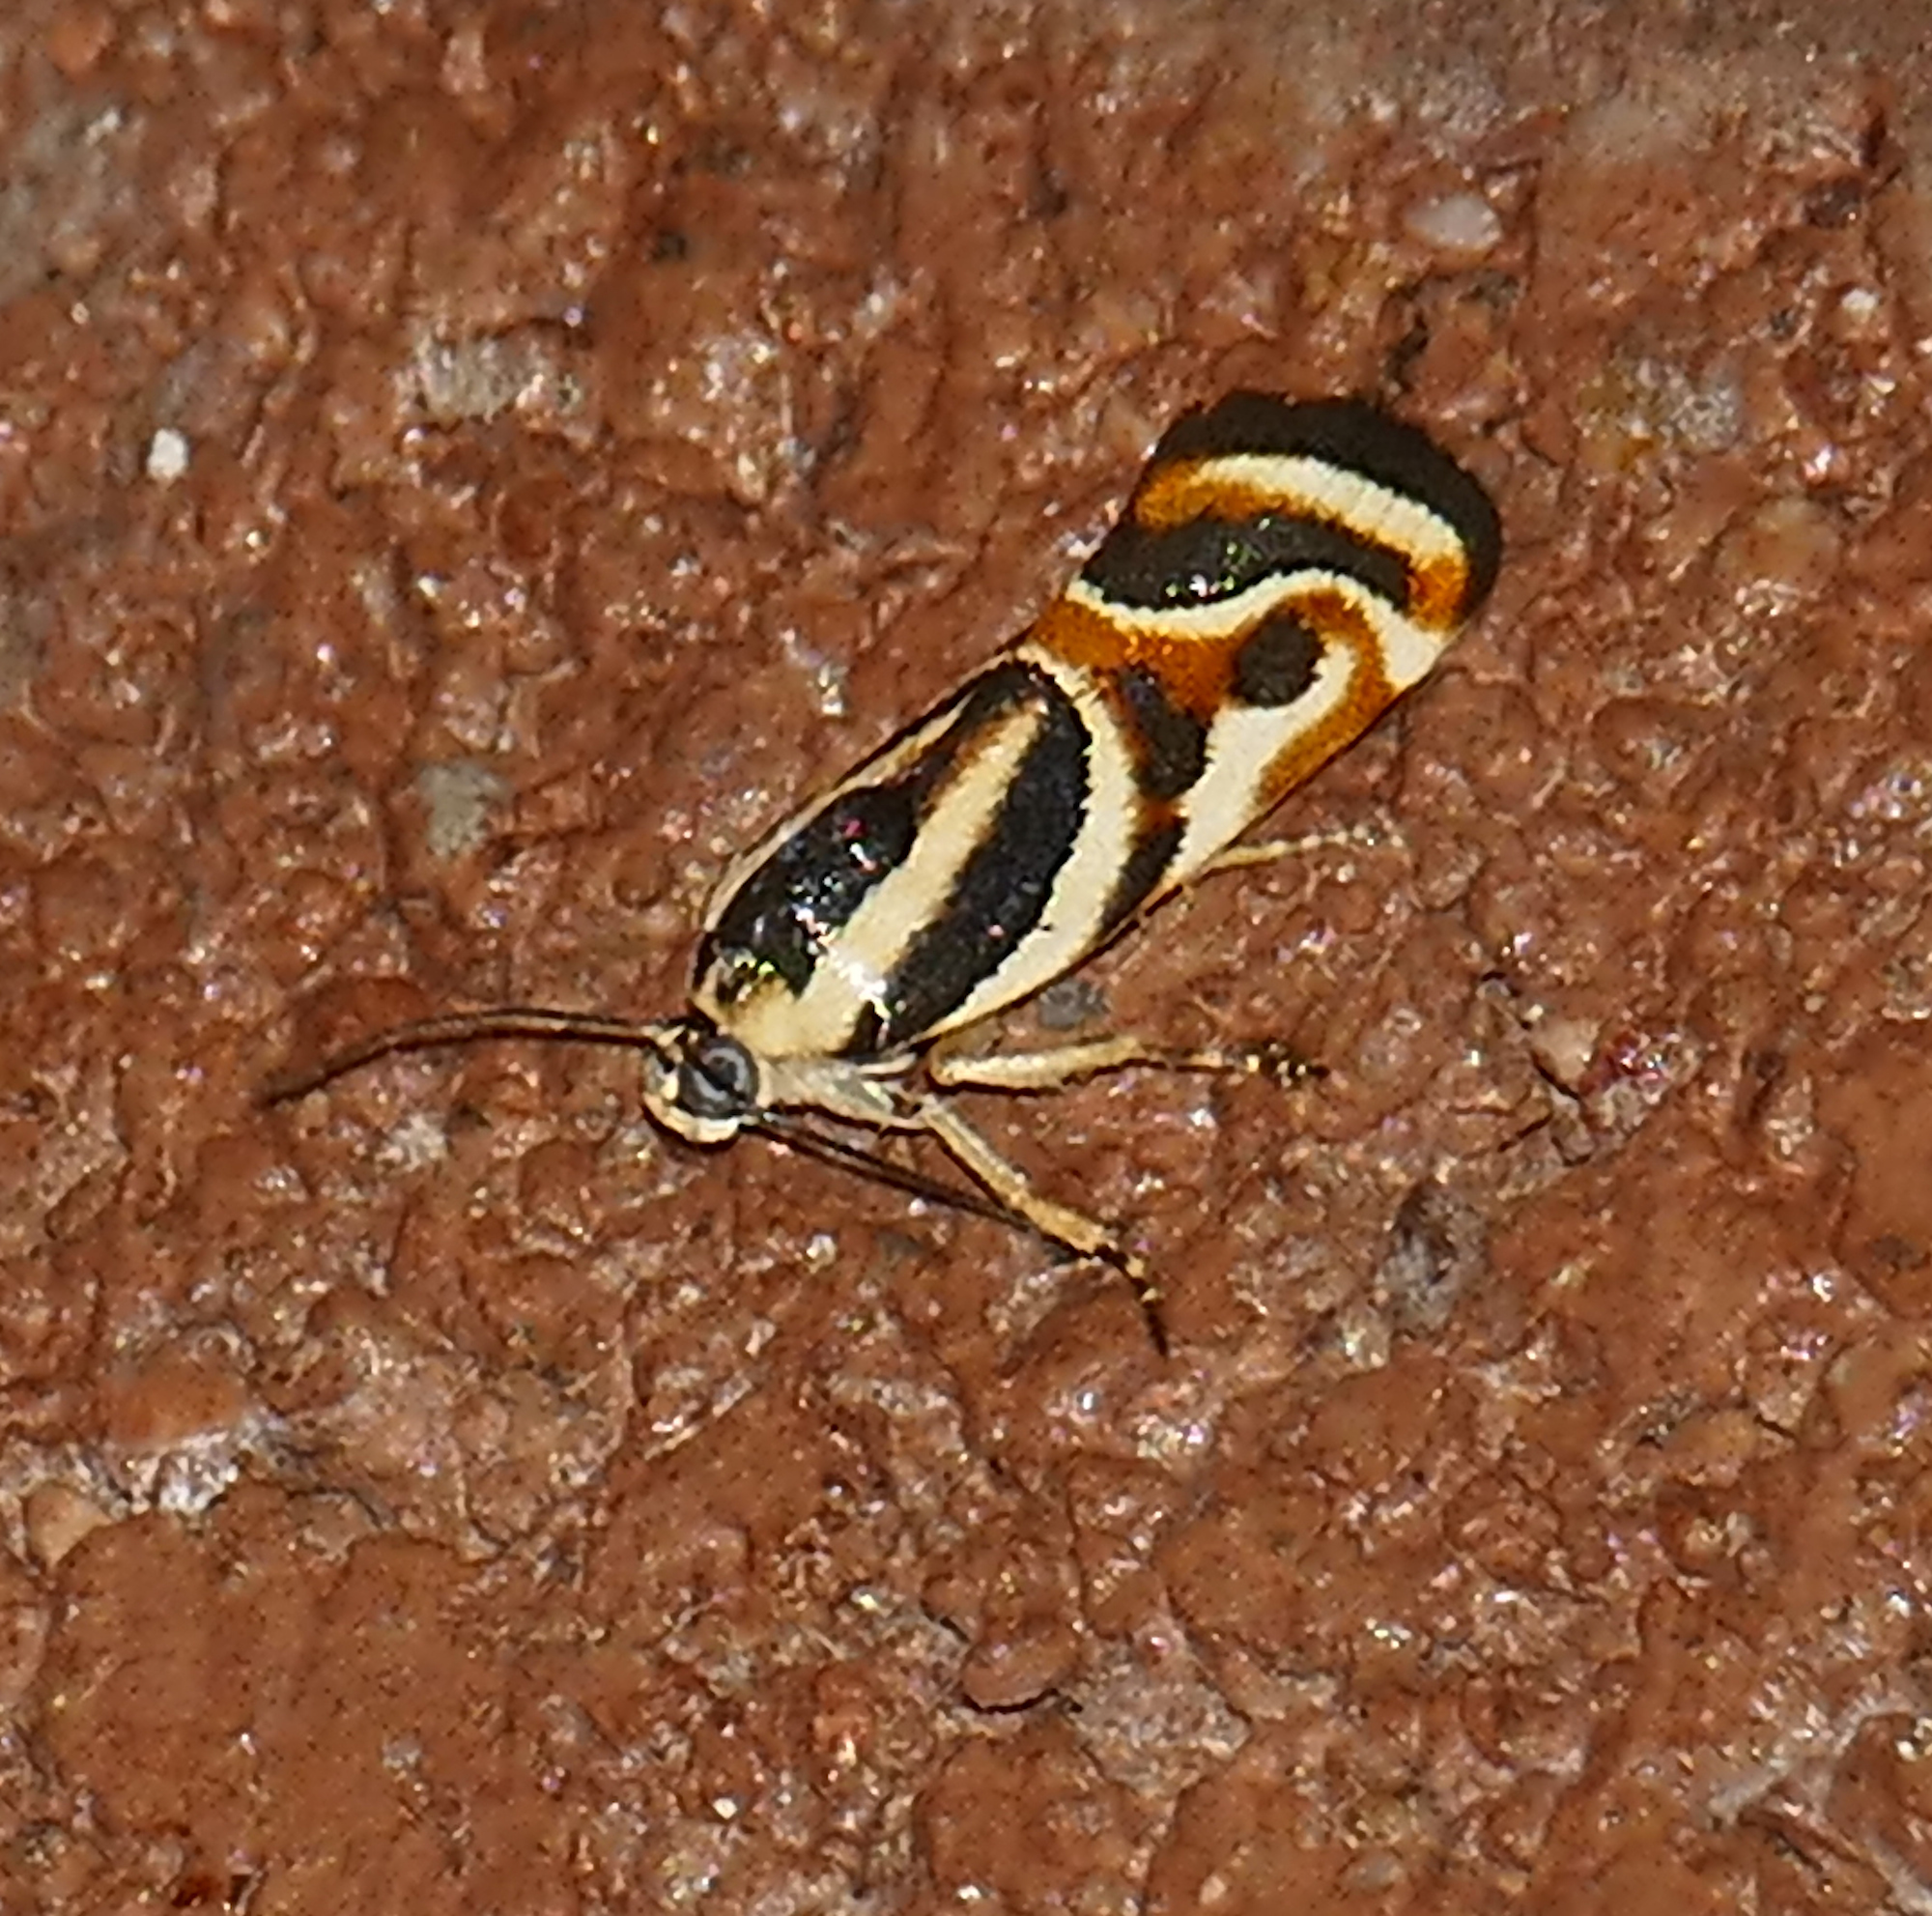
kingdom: Animalia
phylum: Arthropoda
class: Insecta
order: Lepidoptera
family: Noctuidae
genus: Spragueia
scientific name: Spragueia magnifica
